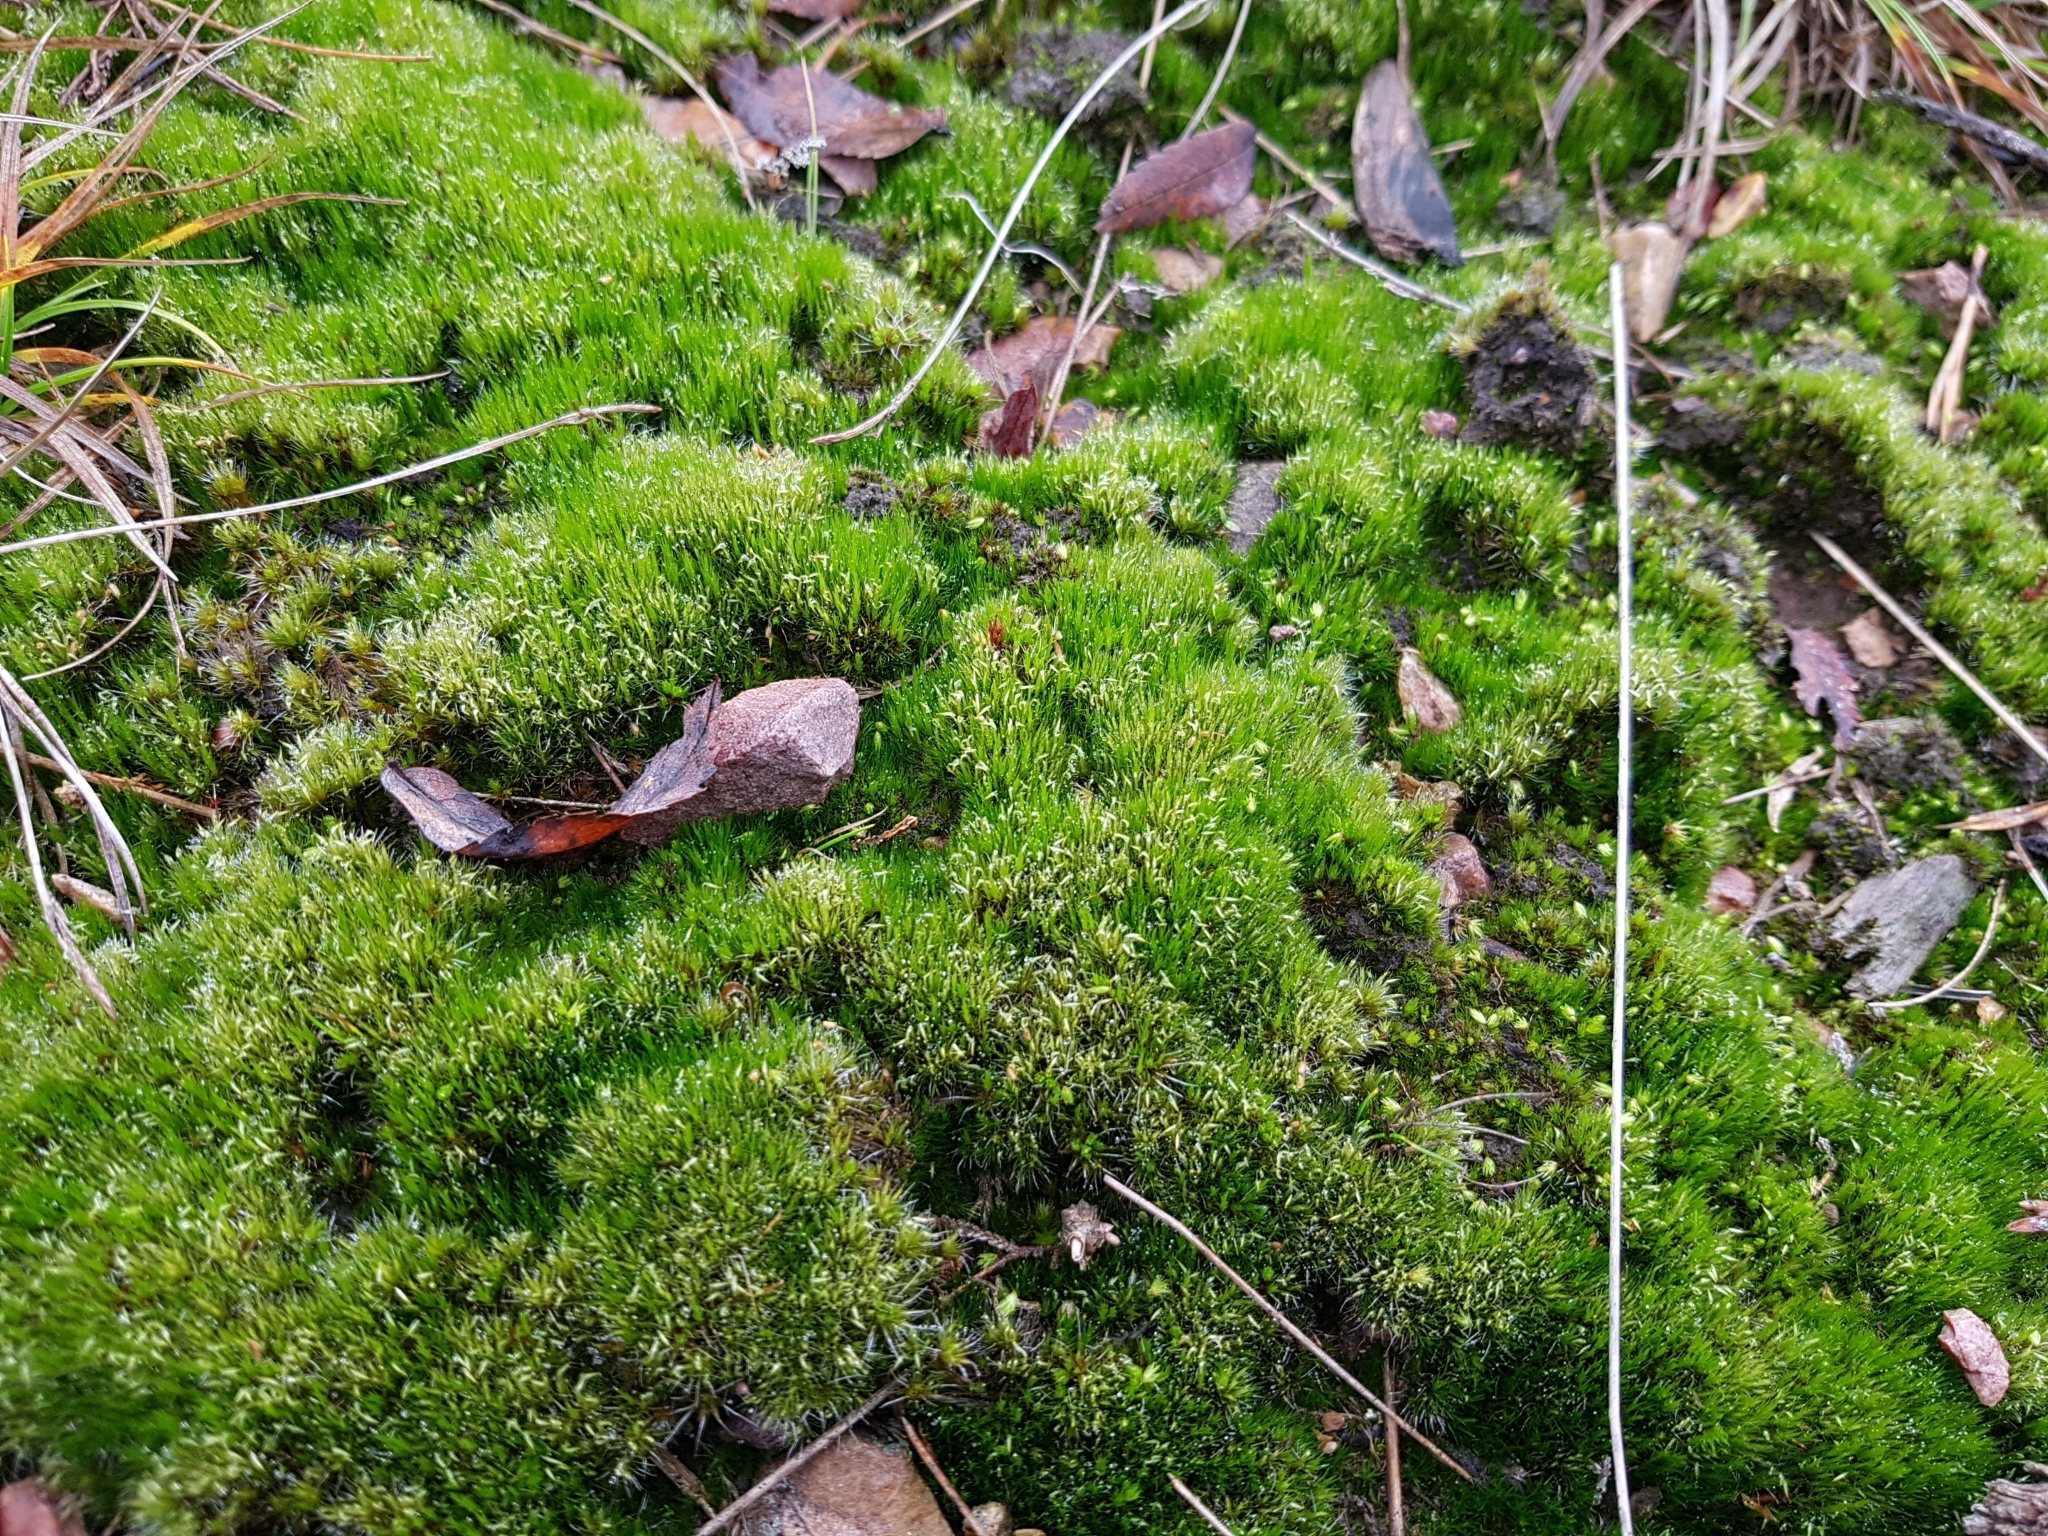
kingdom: Plantae
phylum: Bryophyta
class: Bryopsida
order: Dicranales
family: Leucobryaceae
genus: Campylopus
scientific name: Campylopus introflexus
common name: Heath star moss
